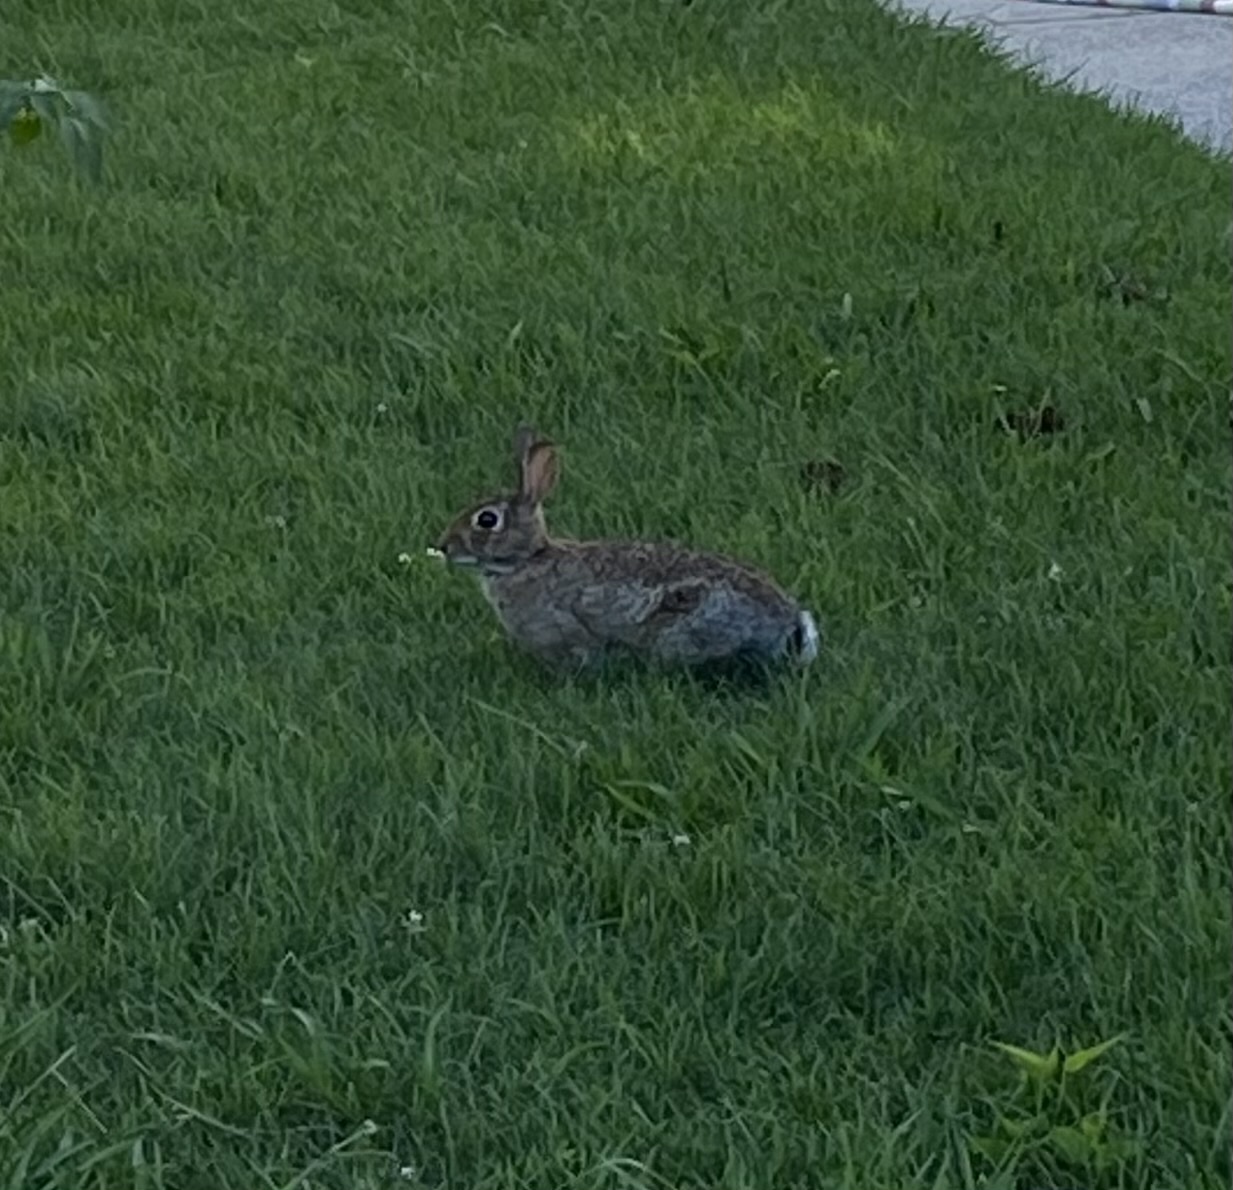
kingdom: Animalia
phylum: Chordata
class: Mammalia
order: Lagomorpha
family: Leporidae
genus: Sylvilagus
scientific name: Sylvilagus floridanus
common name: Eastern cottontail
